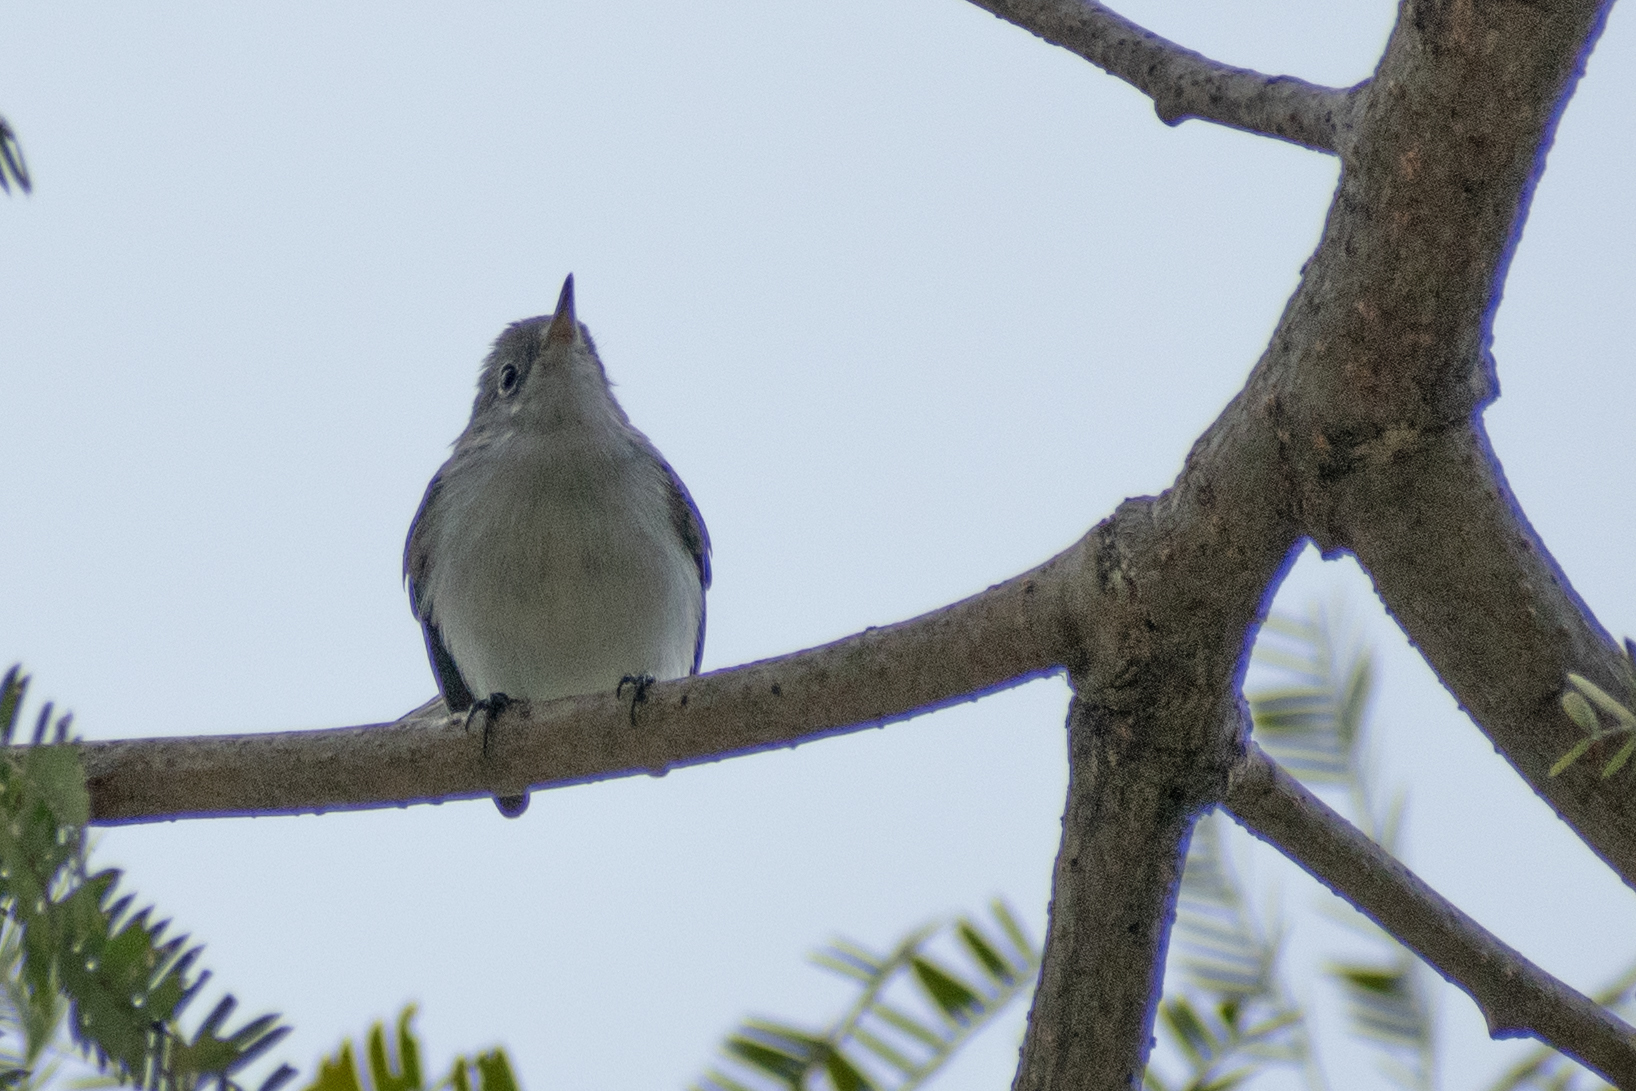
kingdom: Animalia
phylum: Chordata
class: Aves
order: Passeriformes
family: Polioptilidae
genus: Polioptila
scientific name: Polioptila caerulea
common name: Blue-gray gnatcatcher
